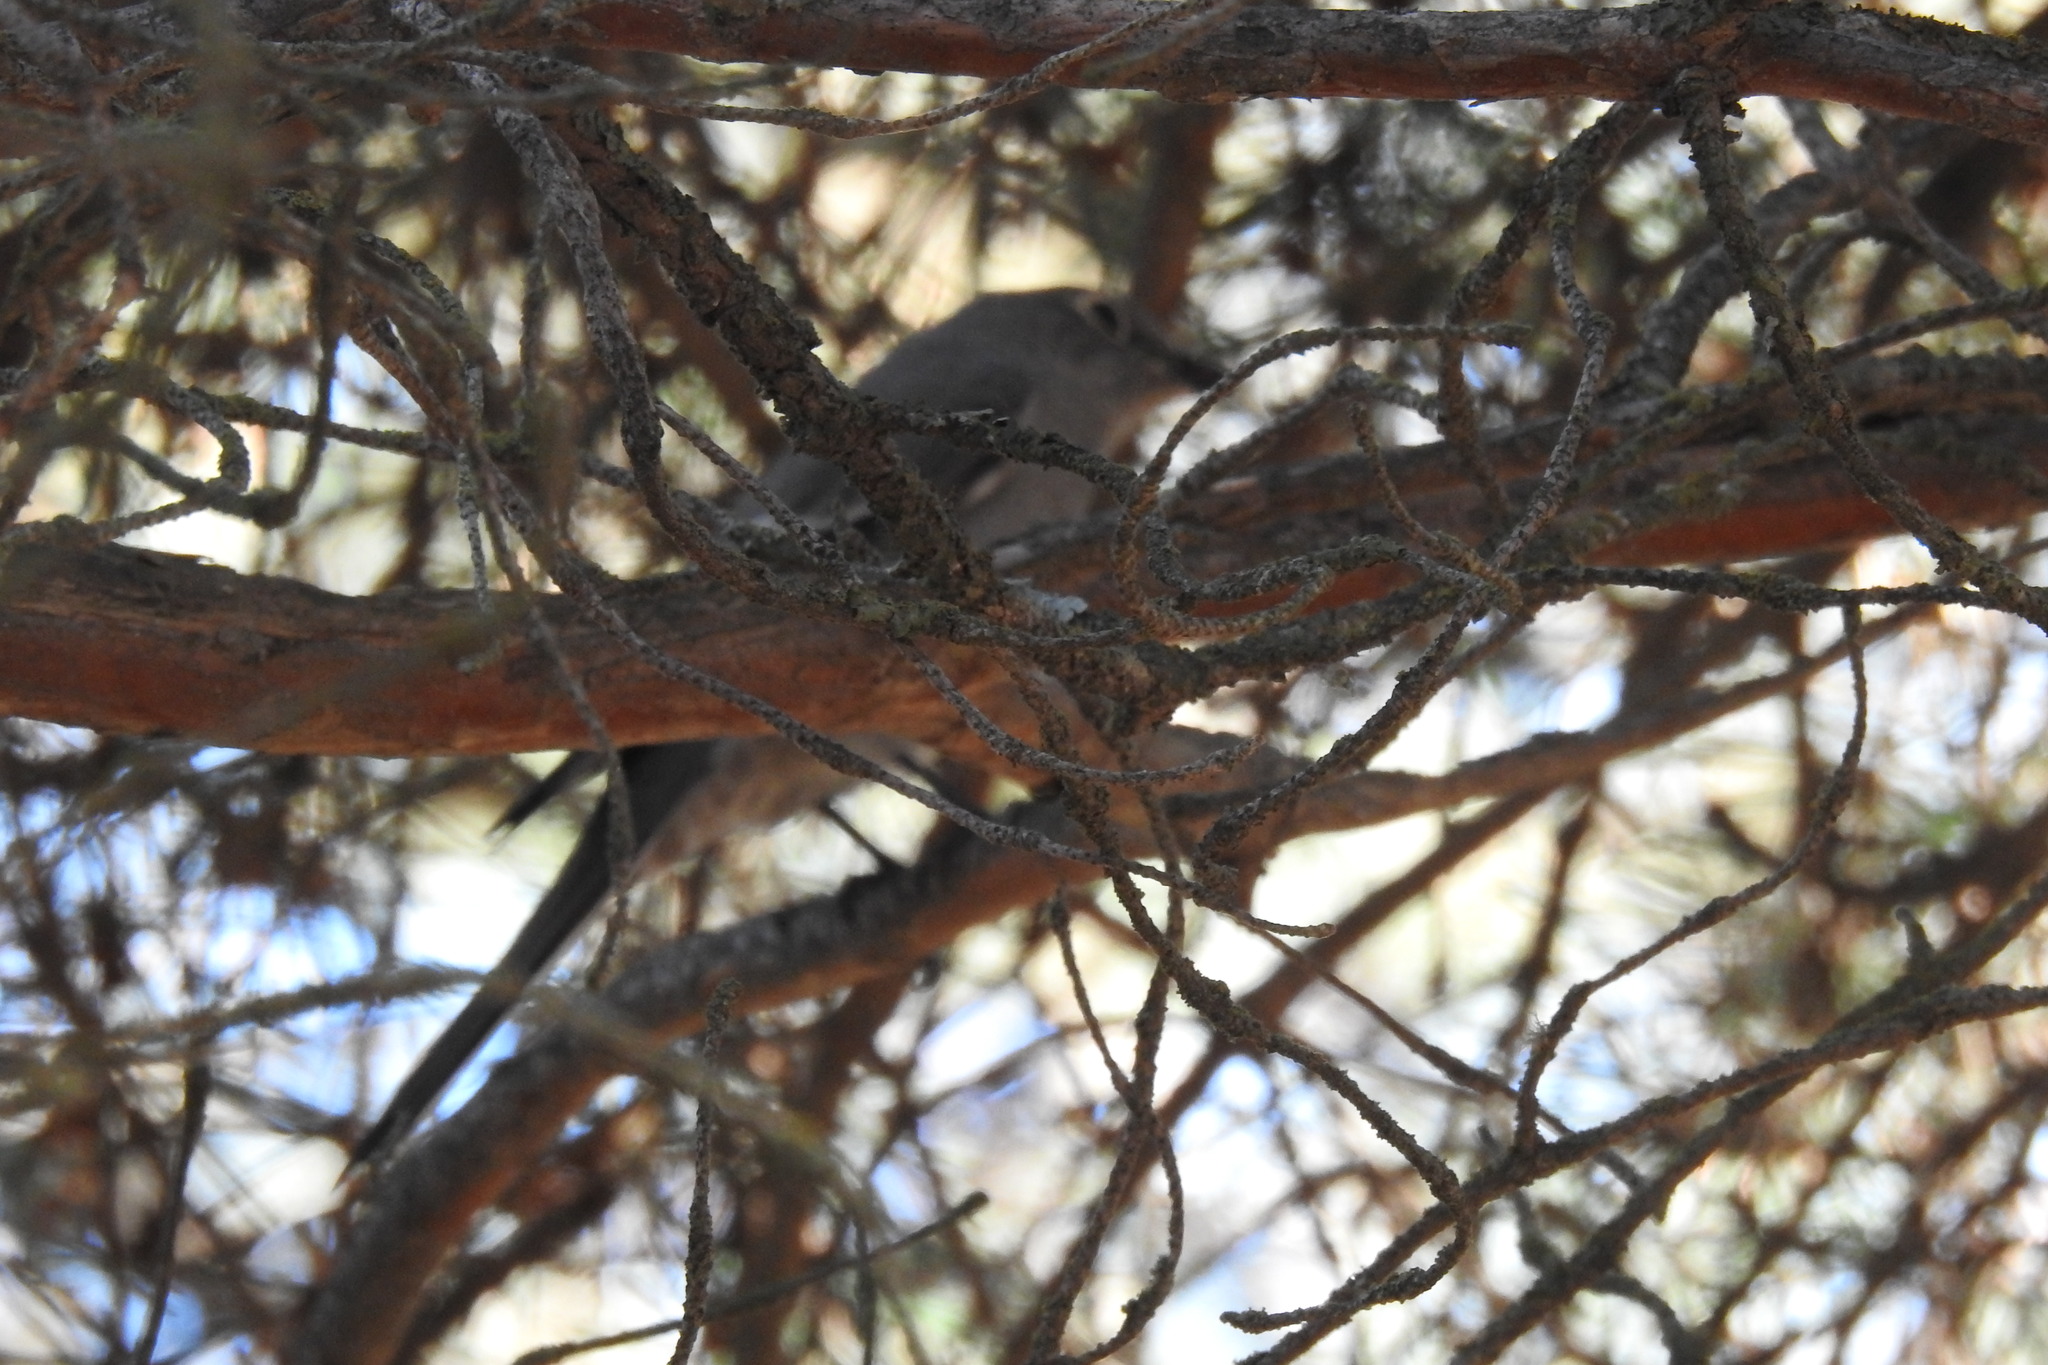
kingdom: Animalia
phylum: Chordata
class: Aves
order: Passeriformes
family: Turdidae
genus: Myadestes
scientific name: Myadestes townsendi
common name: Townsend's solitaire
